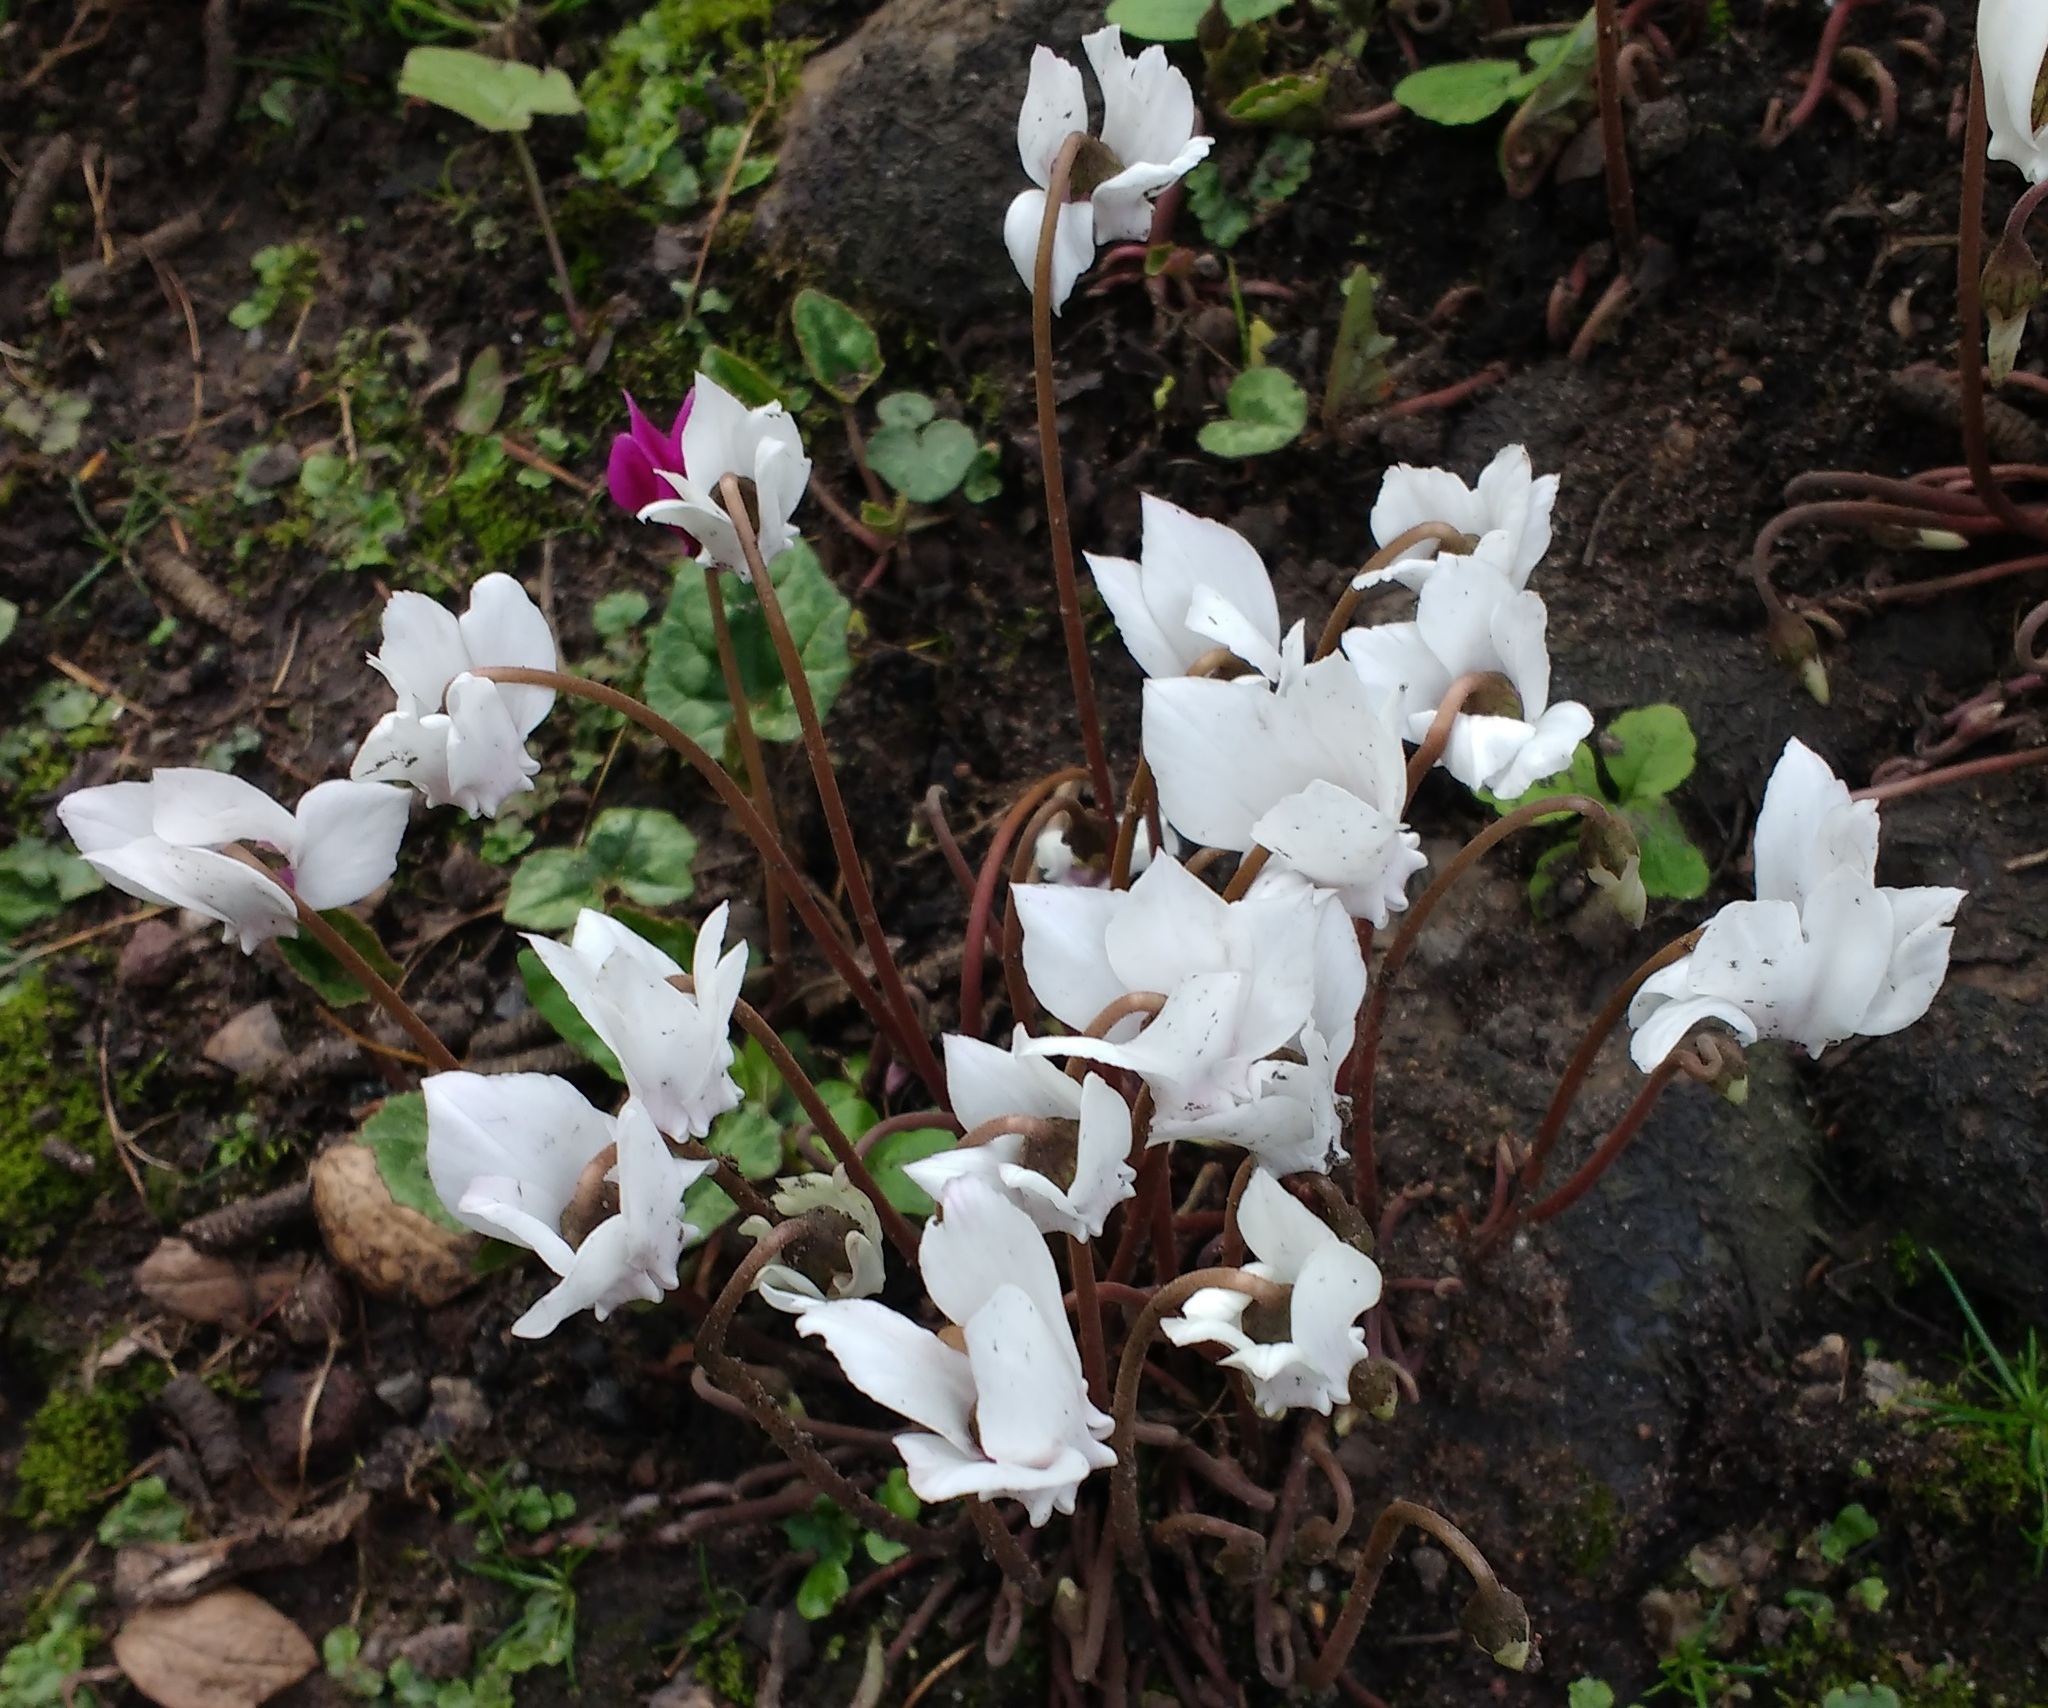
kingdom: Plantae
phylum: Tracheophyta
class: Magnoliopsida
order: Ericales
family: Primulaceae
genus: Cyclamen
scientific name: Cyclamen hederifolium
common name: Sowbread
